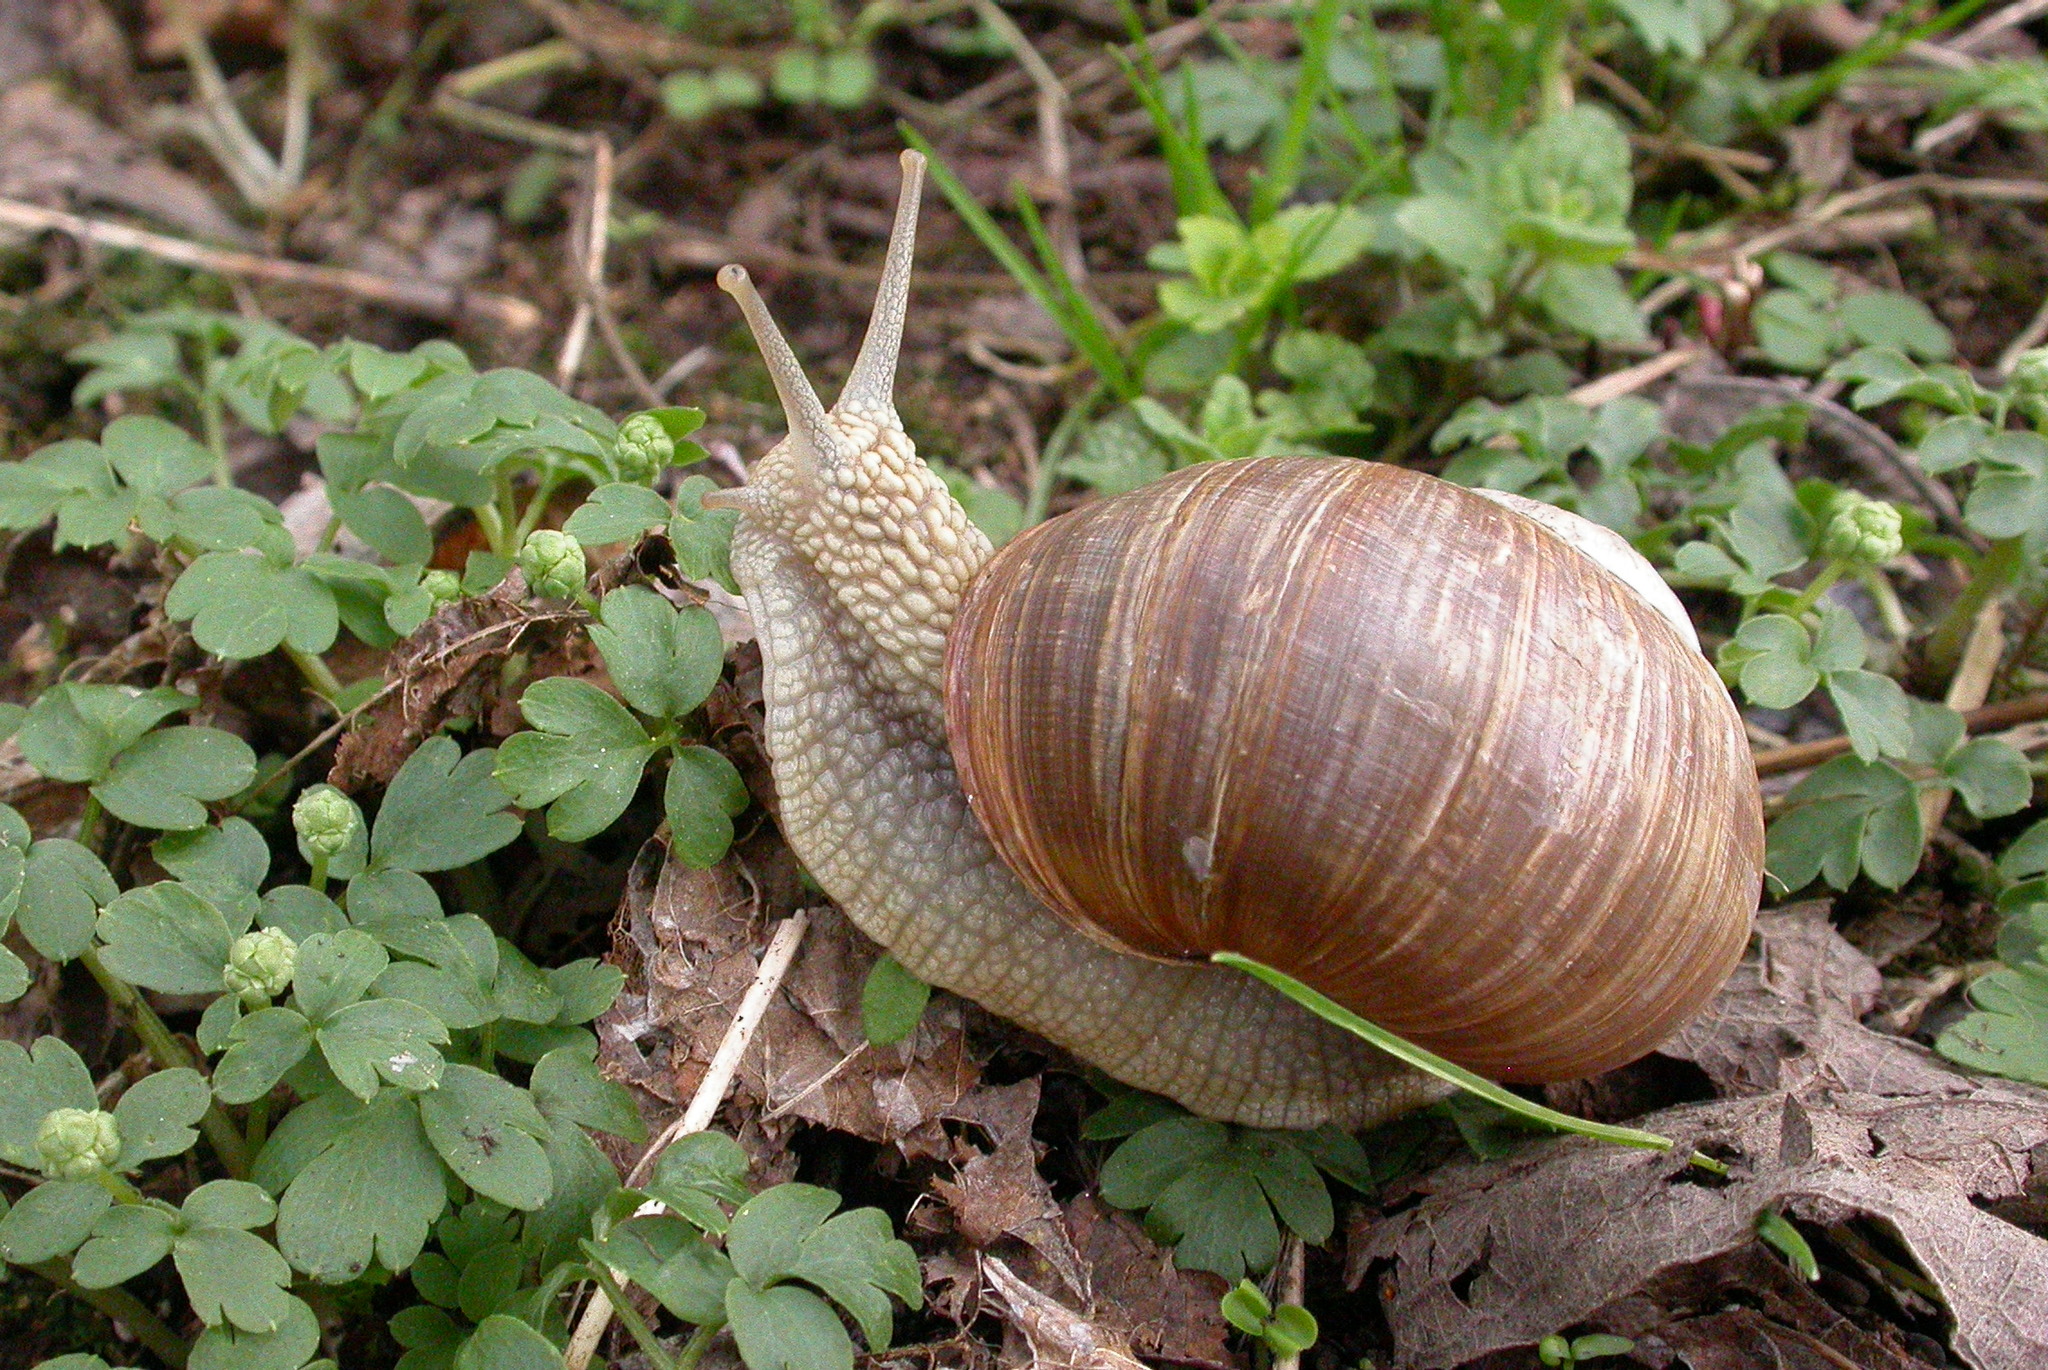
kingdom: Animalia
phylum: Mollusca
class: Gastropoda
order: Stylommatophora
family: Helicidae
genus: Helix
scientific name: Helix pomatia
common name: Roman snail
